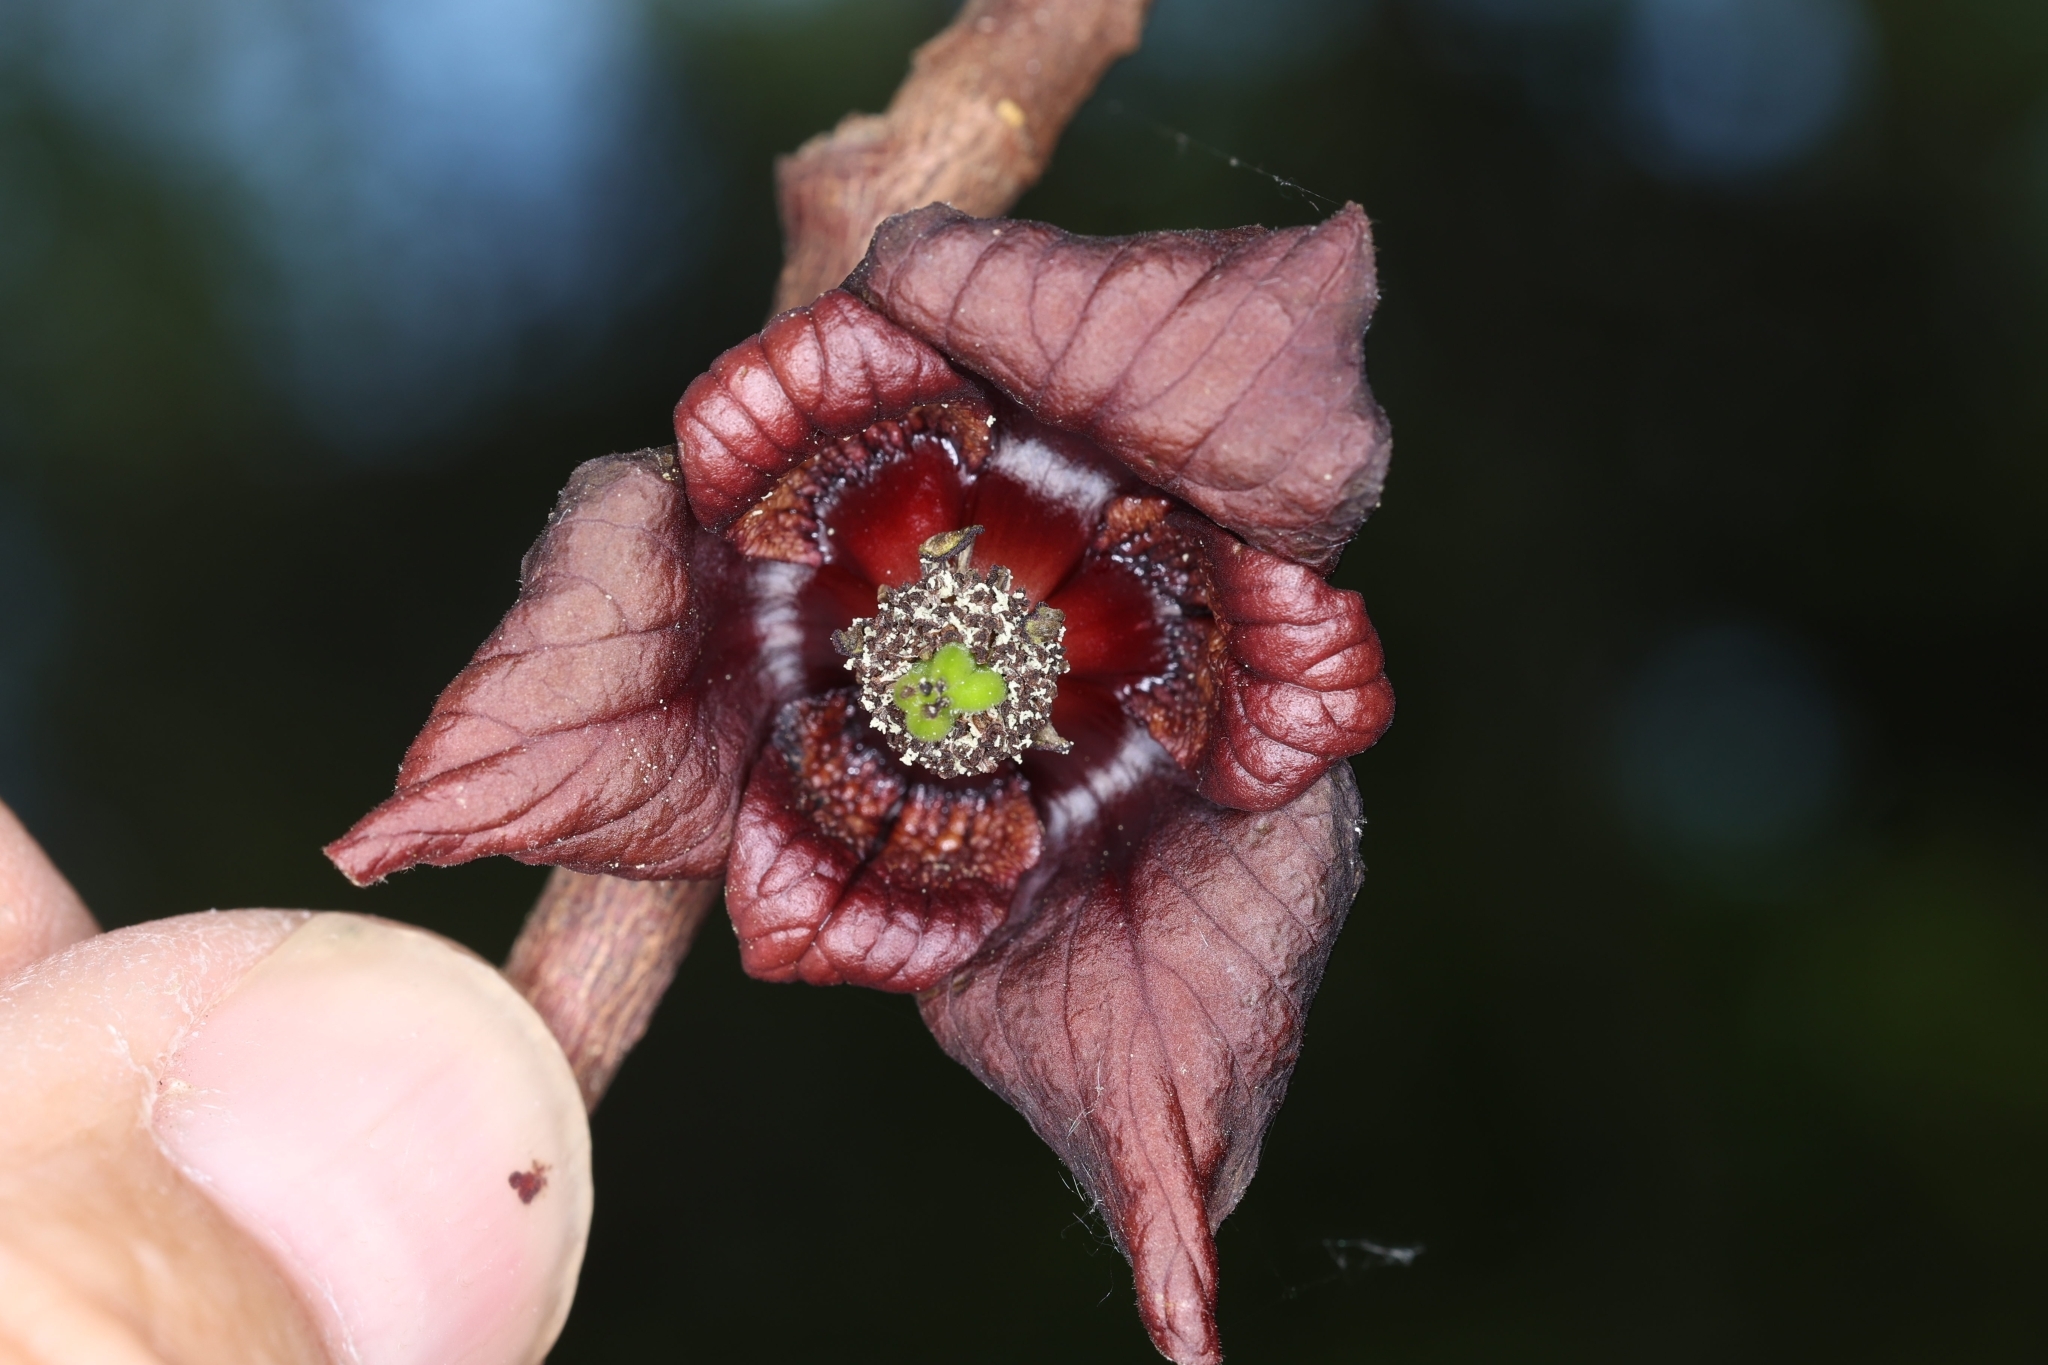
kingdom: Plantae
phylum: Tracheophyta
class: Magnoliopsida
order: Magnoliales
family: Annonaceae
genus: Asimina
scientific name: Asimina triloba
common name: Dog-banana
